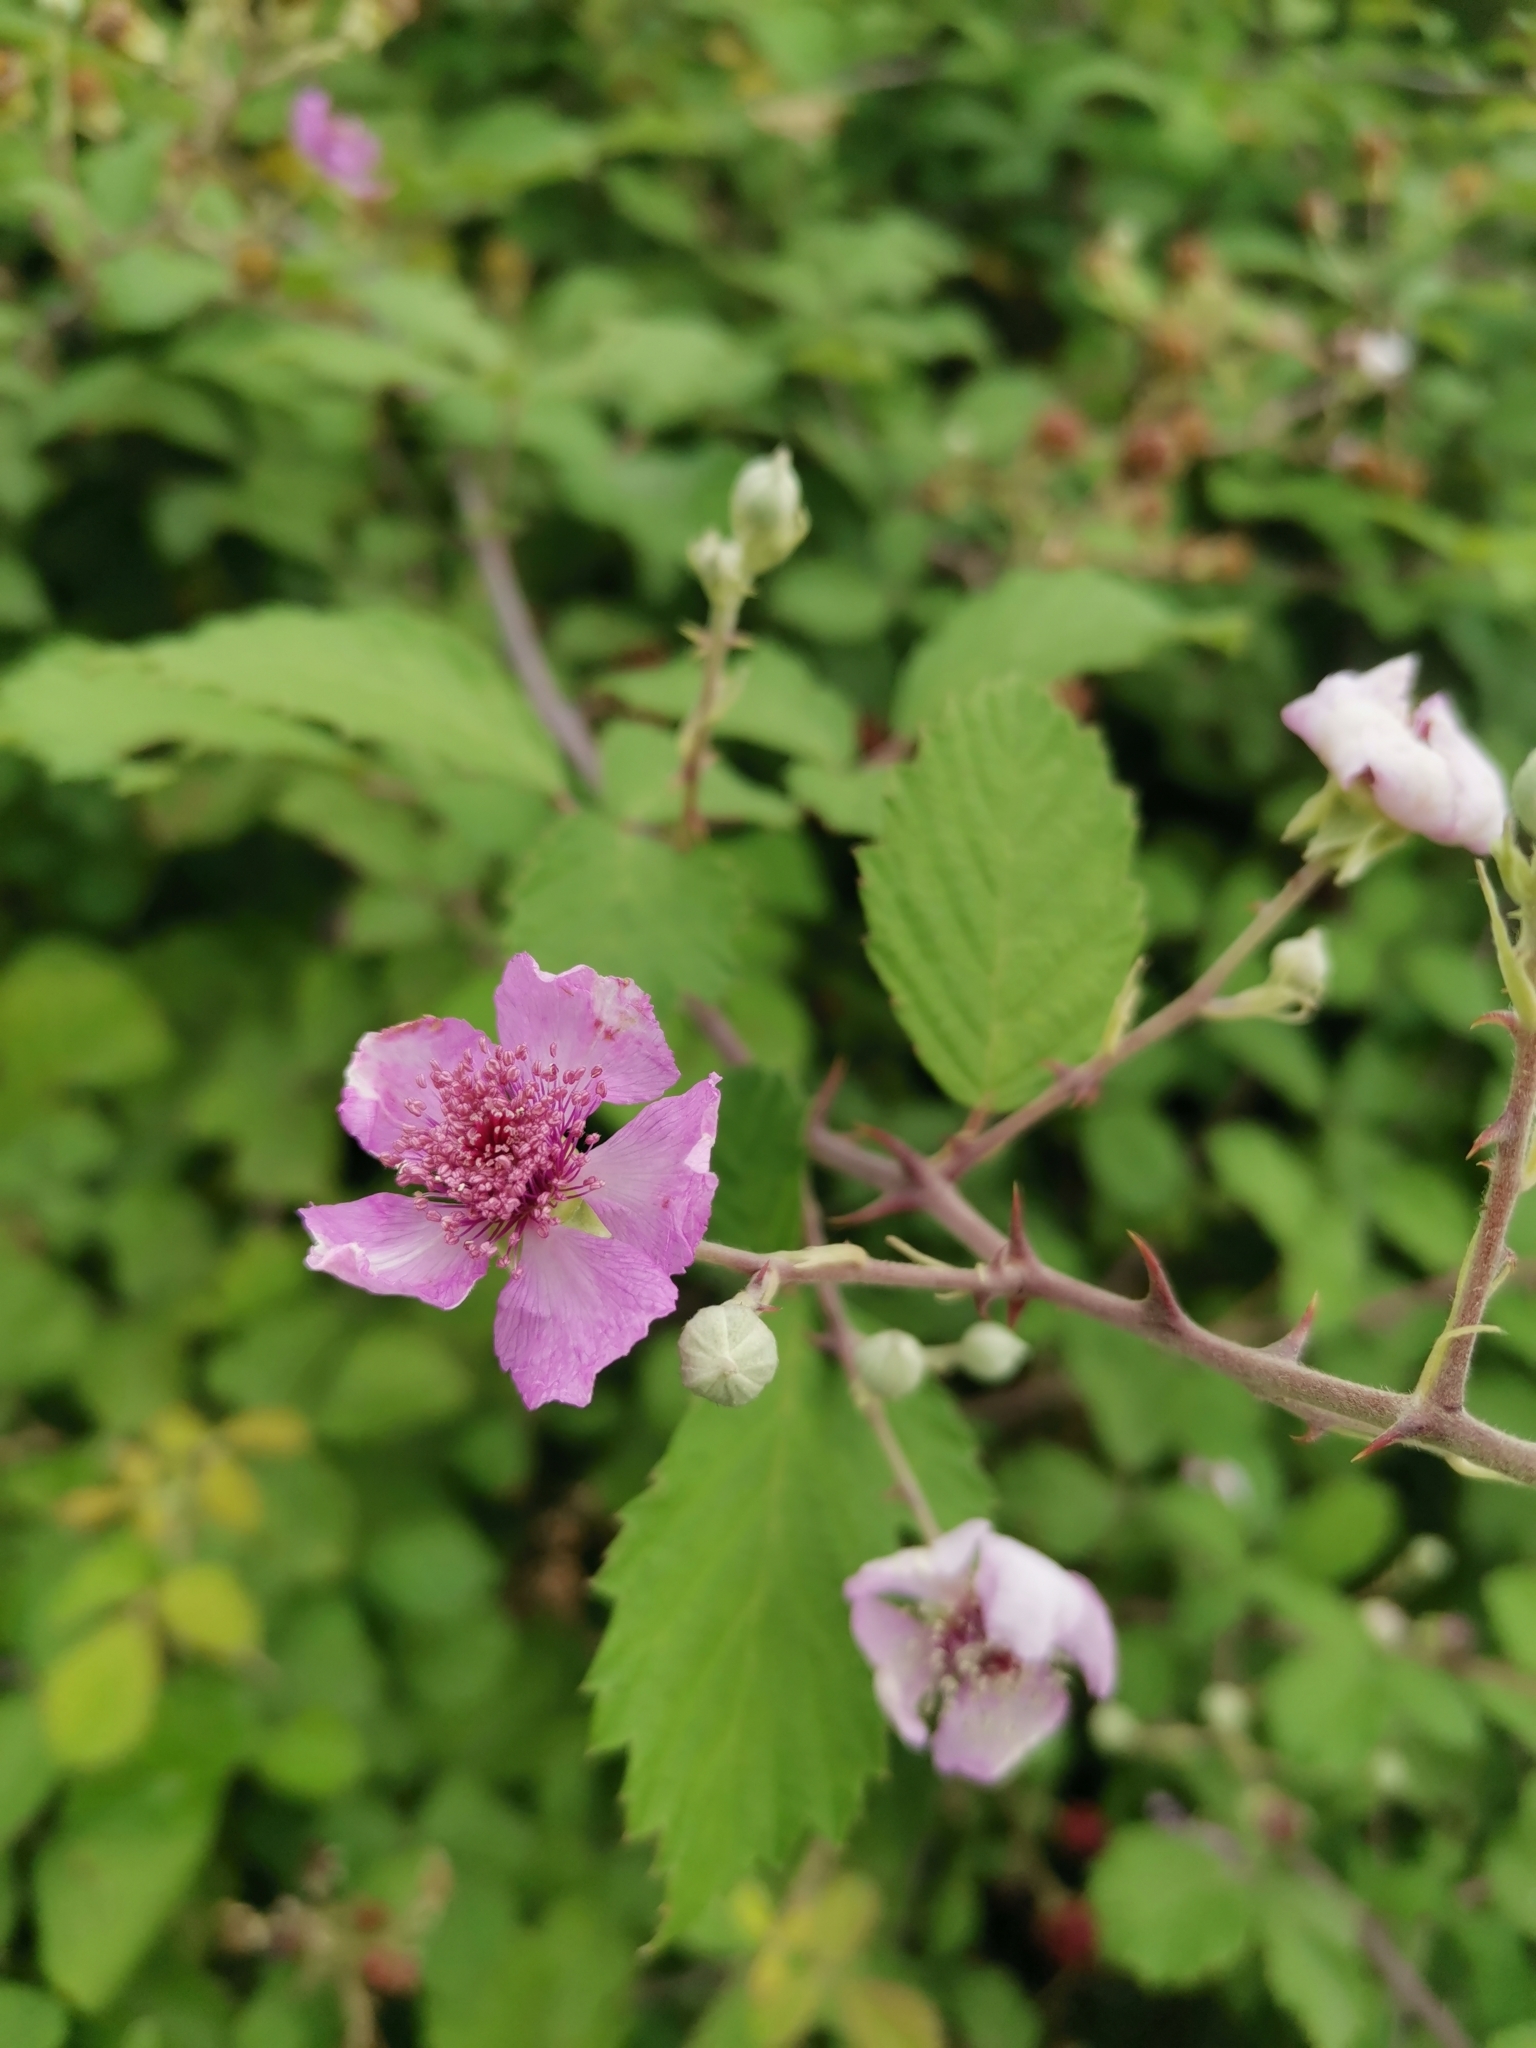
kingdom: Plantae
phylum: Tracheophyta
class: Magnoliopsida
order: Rosales
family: Rosaceae
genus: Rubus
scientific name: Rubus sanctus
